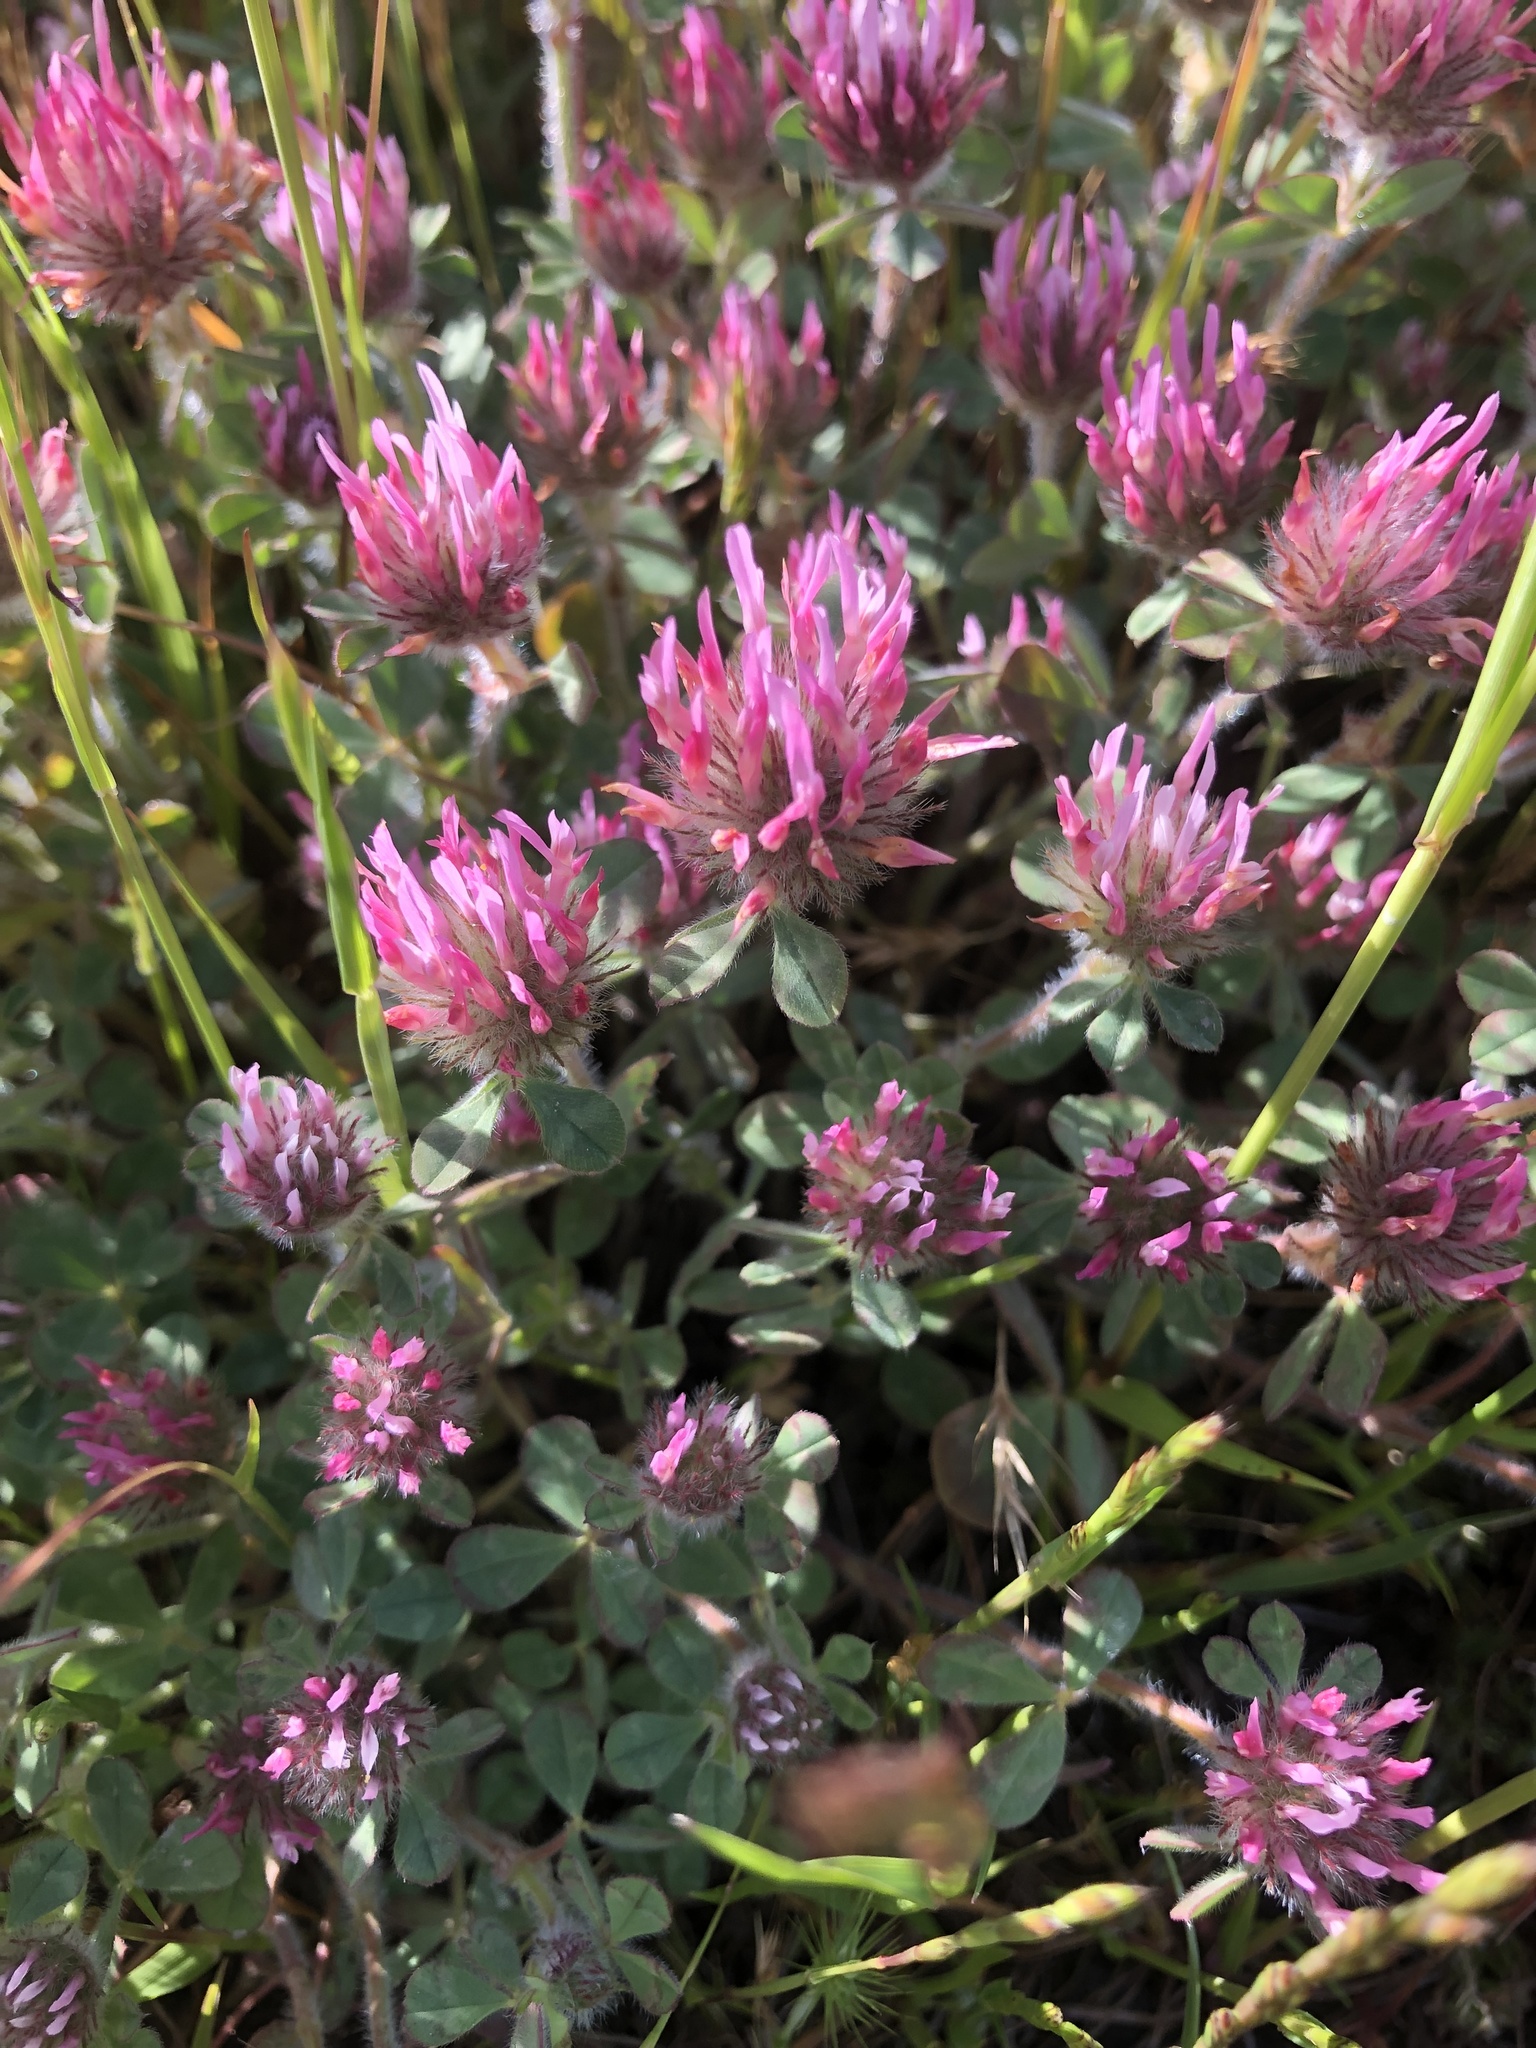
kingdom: Plantae
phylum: Tracheophyta
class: Magnoliopsida
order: Fabales
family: Fabaceae
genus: Trifolium
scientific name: Trifolium hirtum
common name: Rose clover
